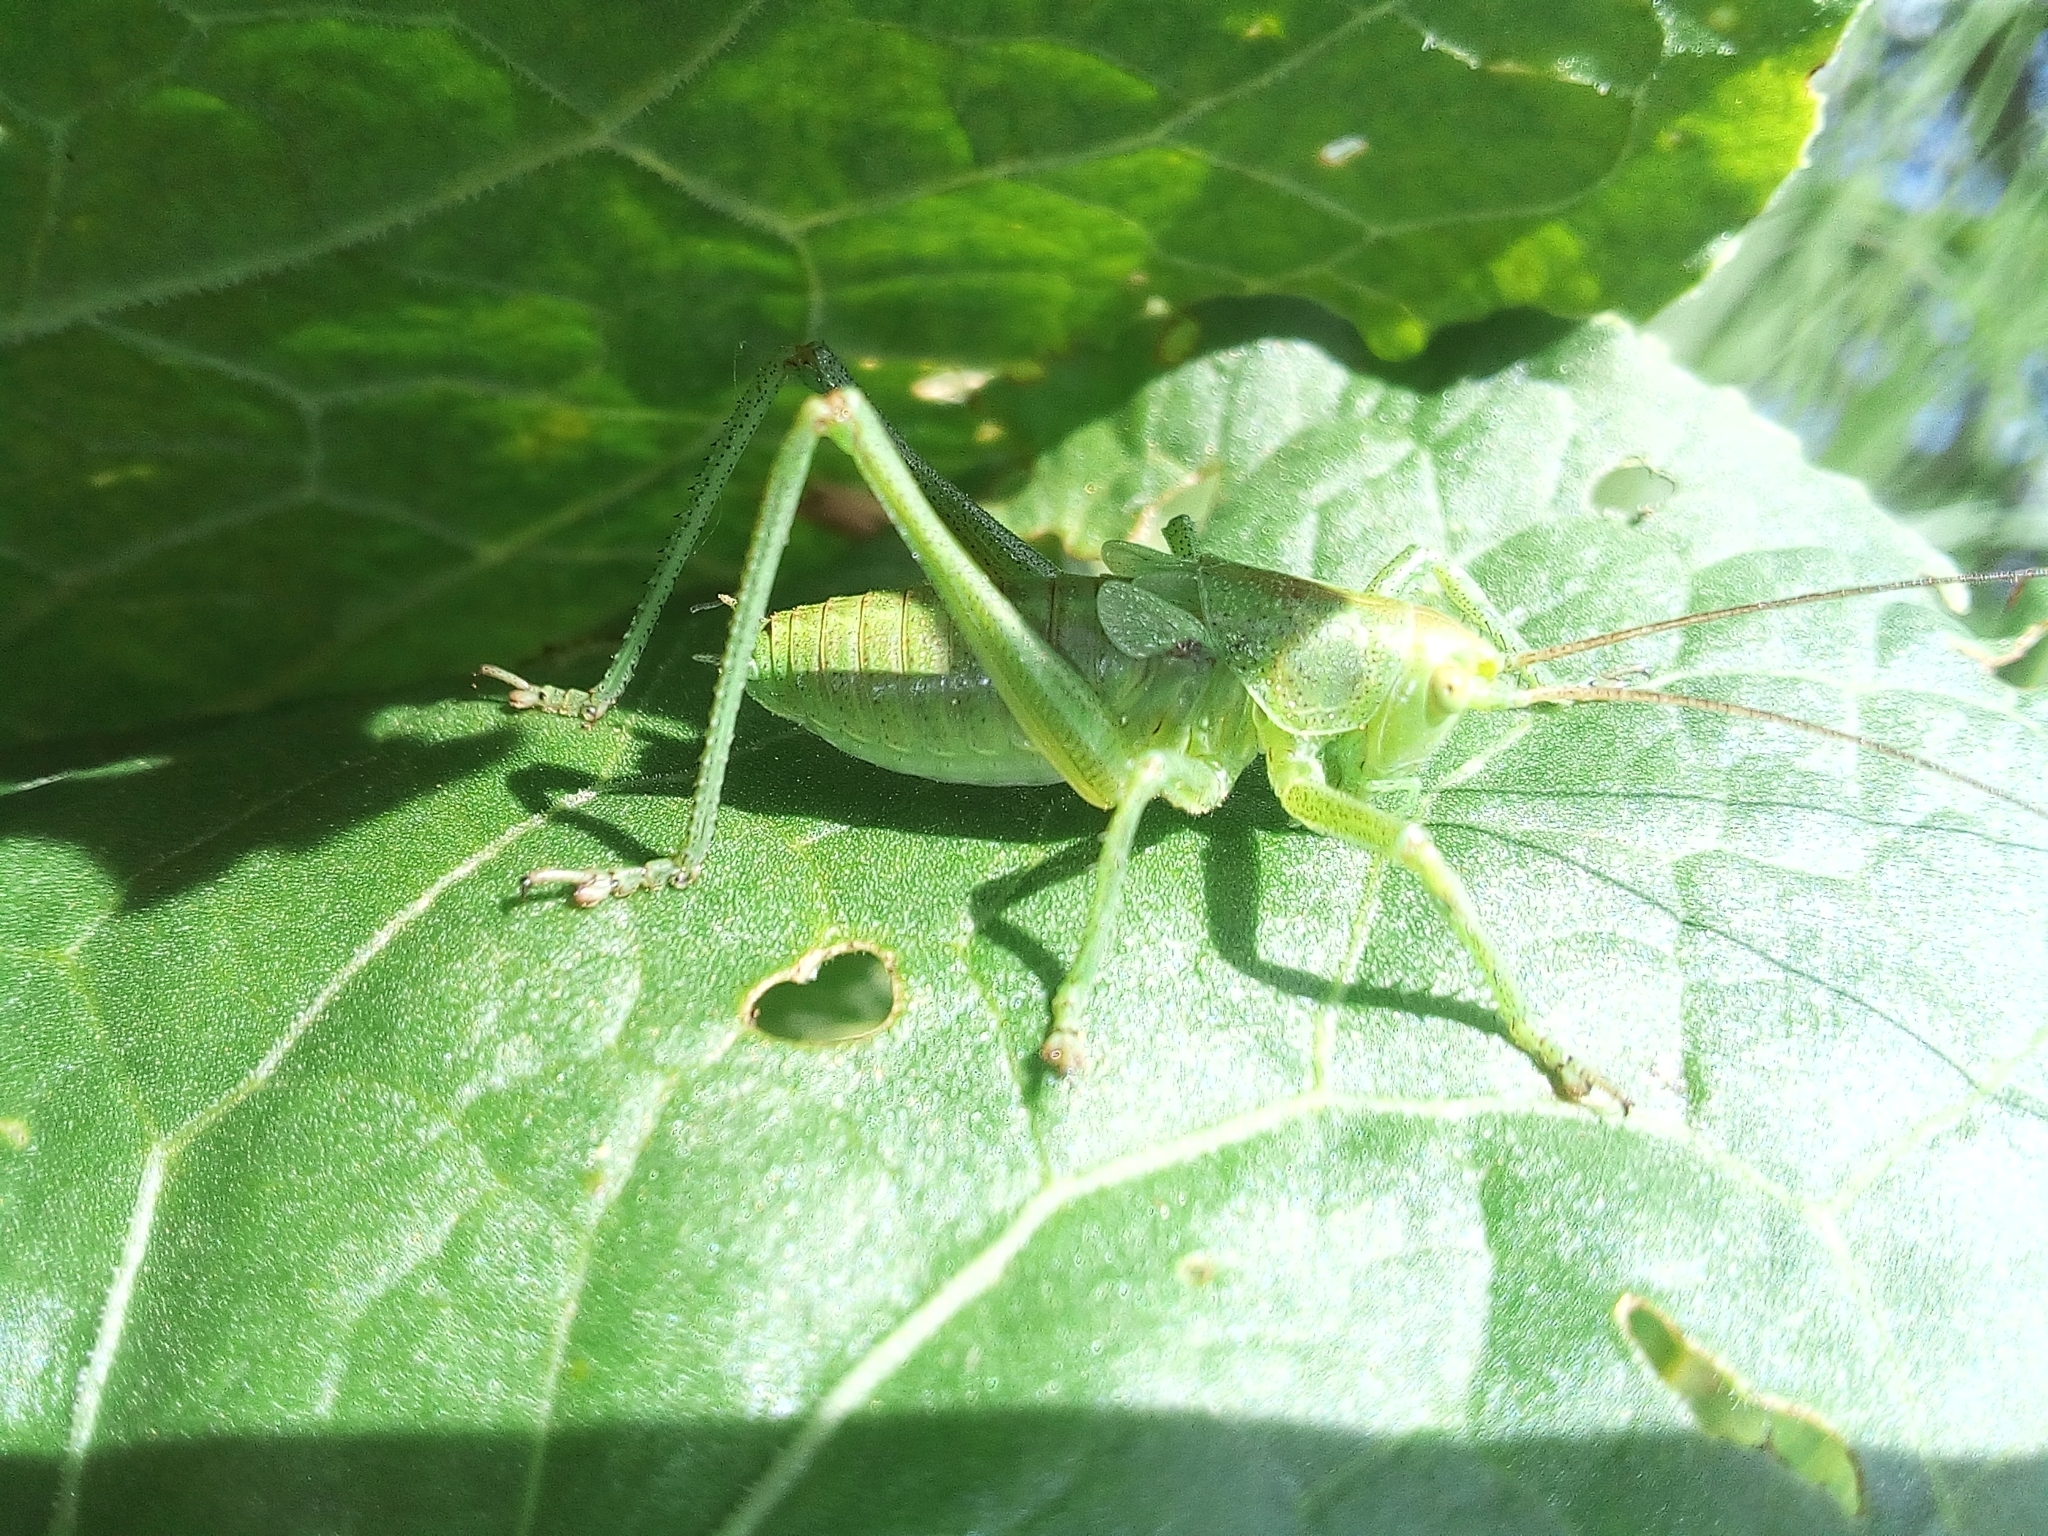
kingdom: Animalia
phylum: Arthropoda
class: Insecta
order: Orthoptera
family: Tettigoniidae
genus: Tettigonia
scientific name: Tettigonia cantans
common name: Upland green bush-cricket
